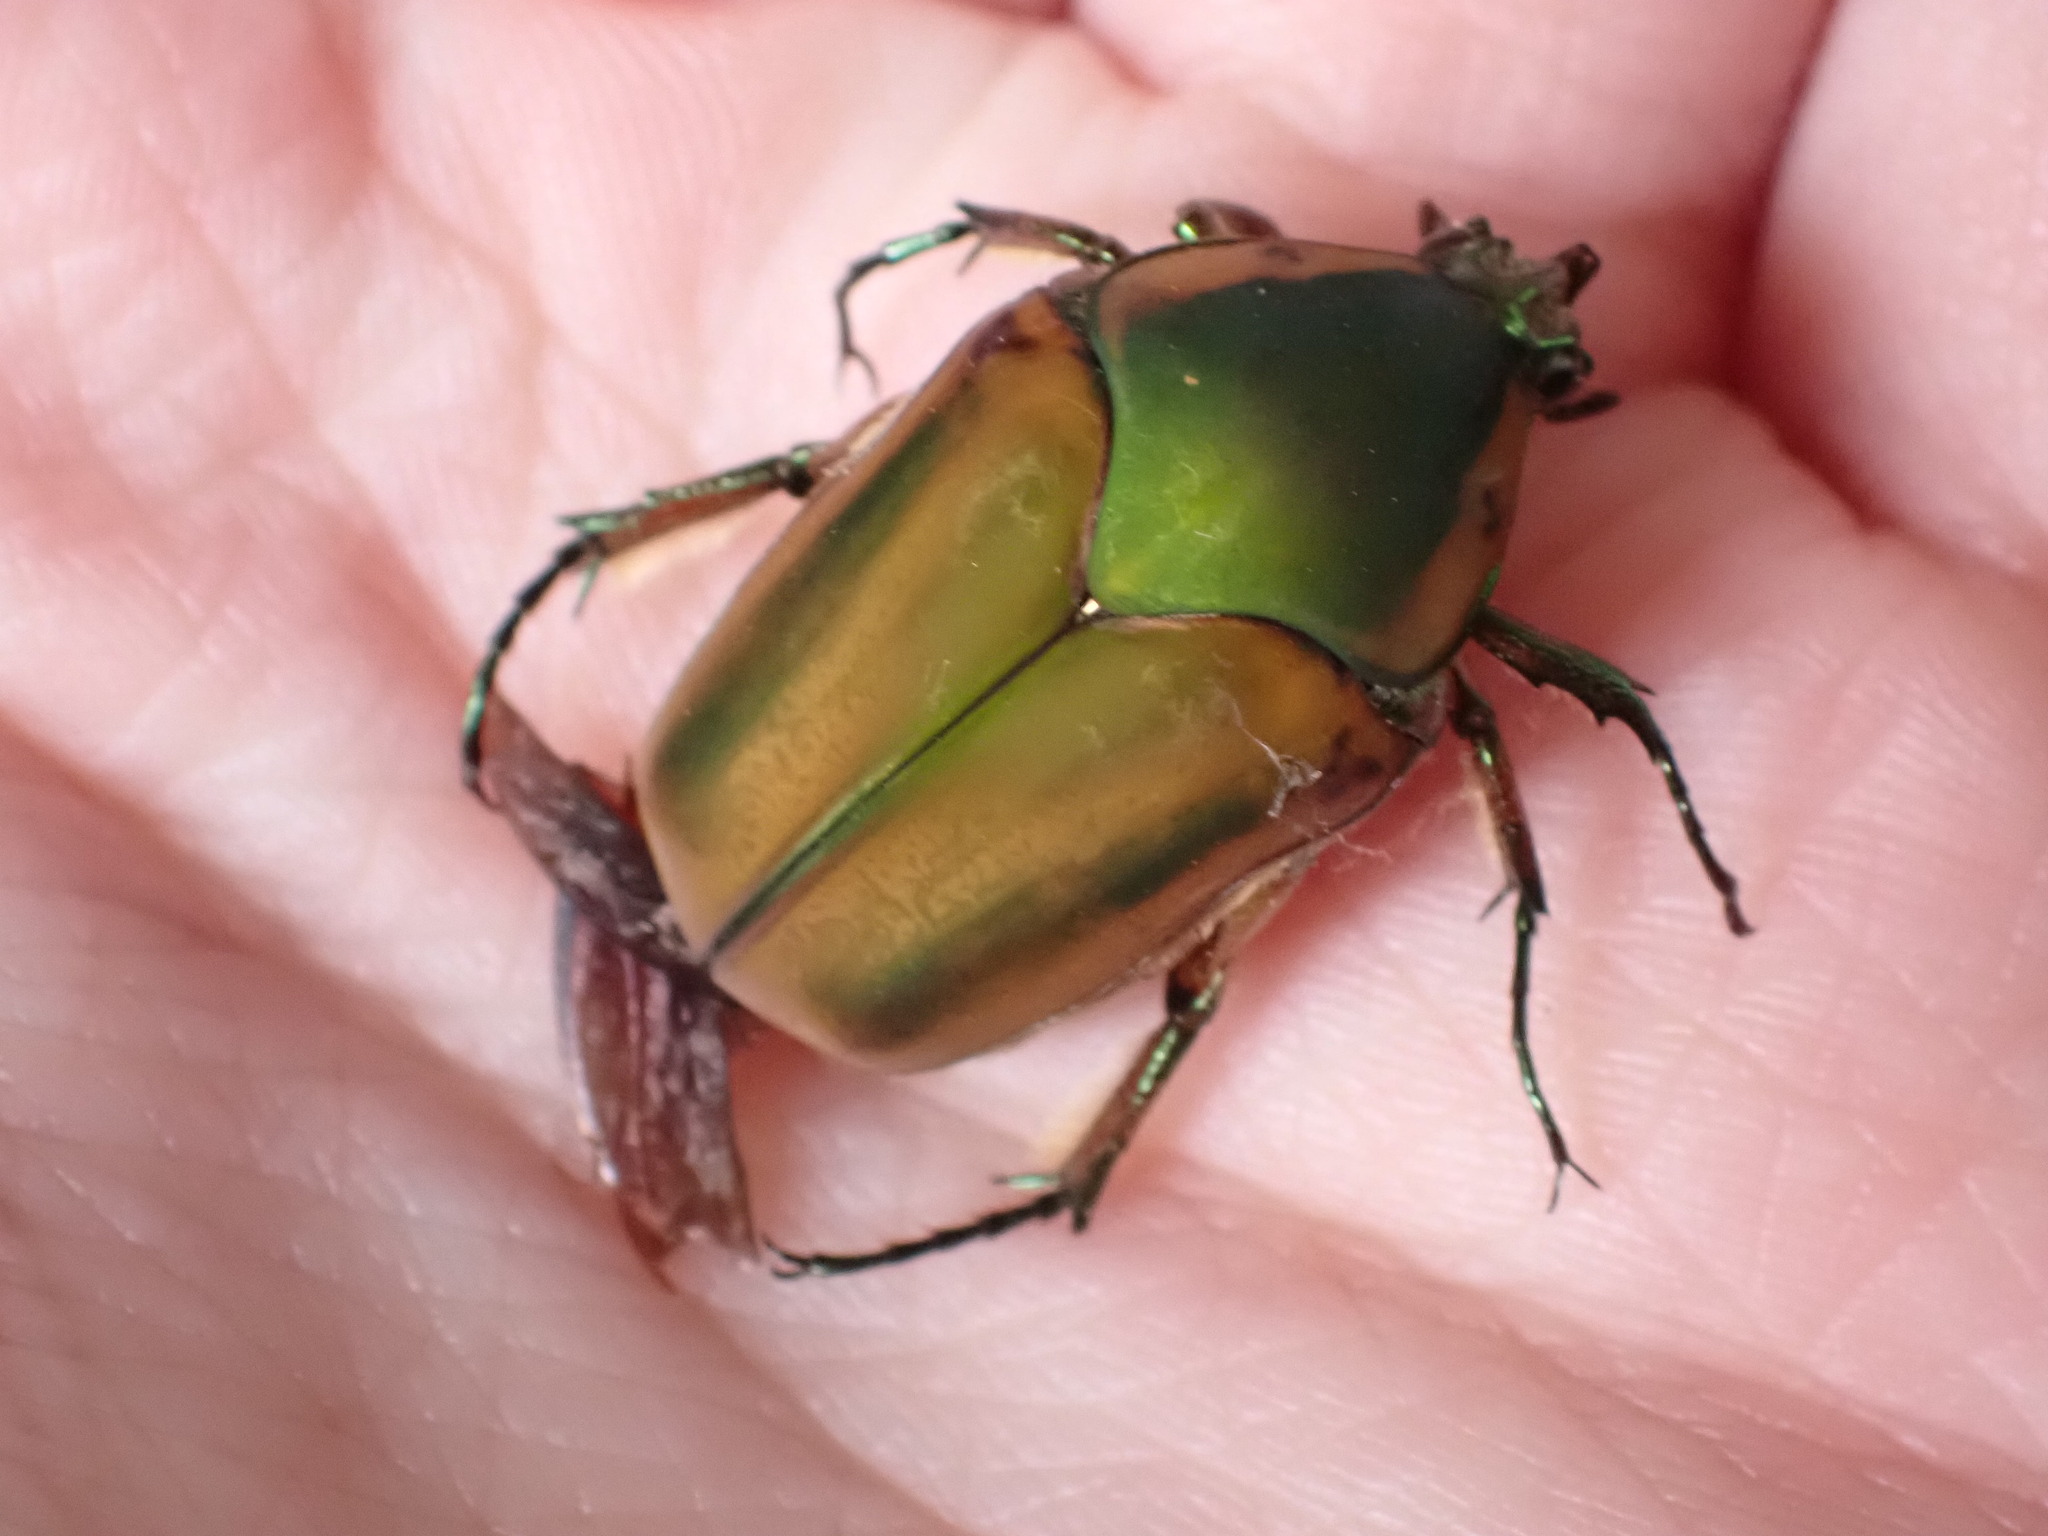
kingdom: Animalia
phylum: Arthropoda
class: Insecta
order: Coleoptera
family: Scarabaeidae
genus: Cotinis
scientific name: Cotinis nitida
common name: Common green june beetle
